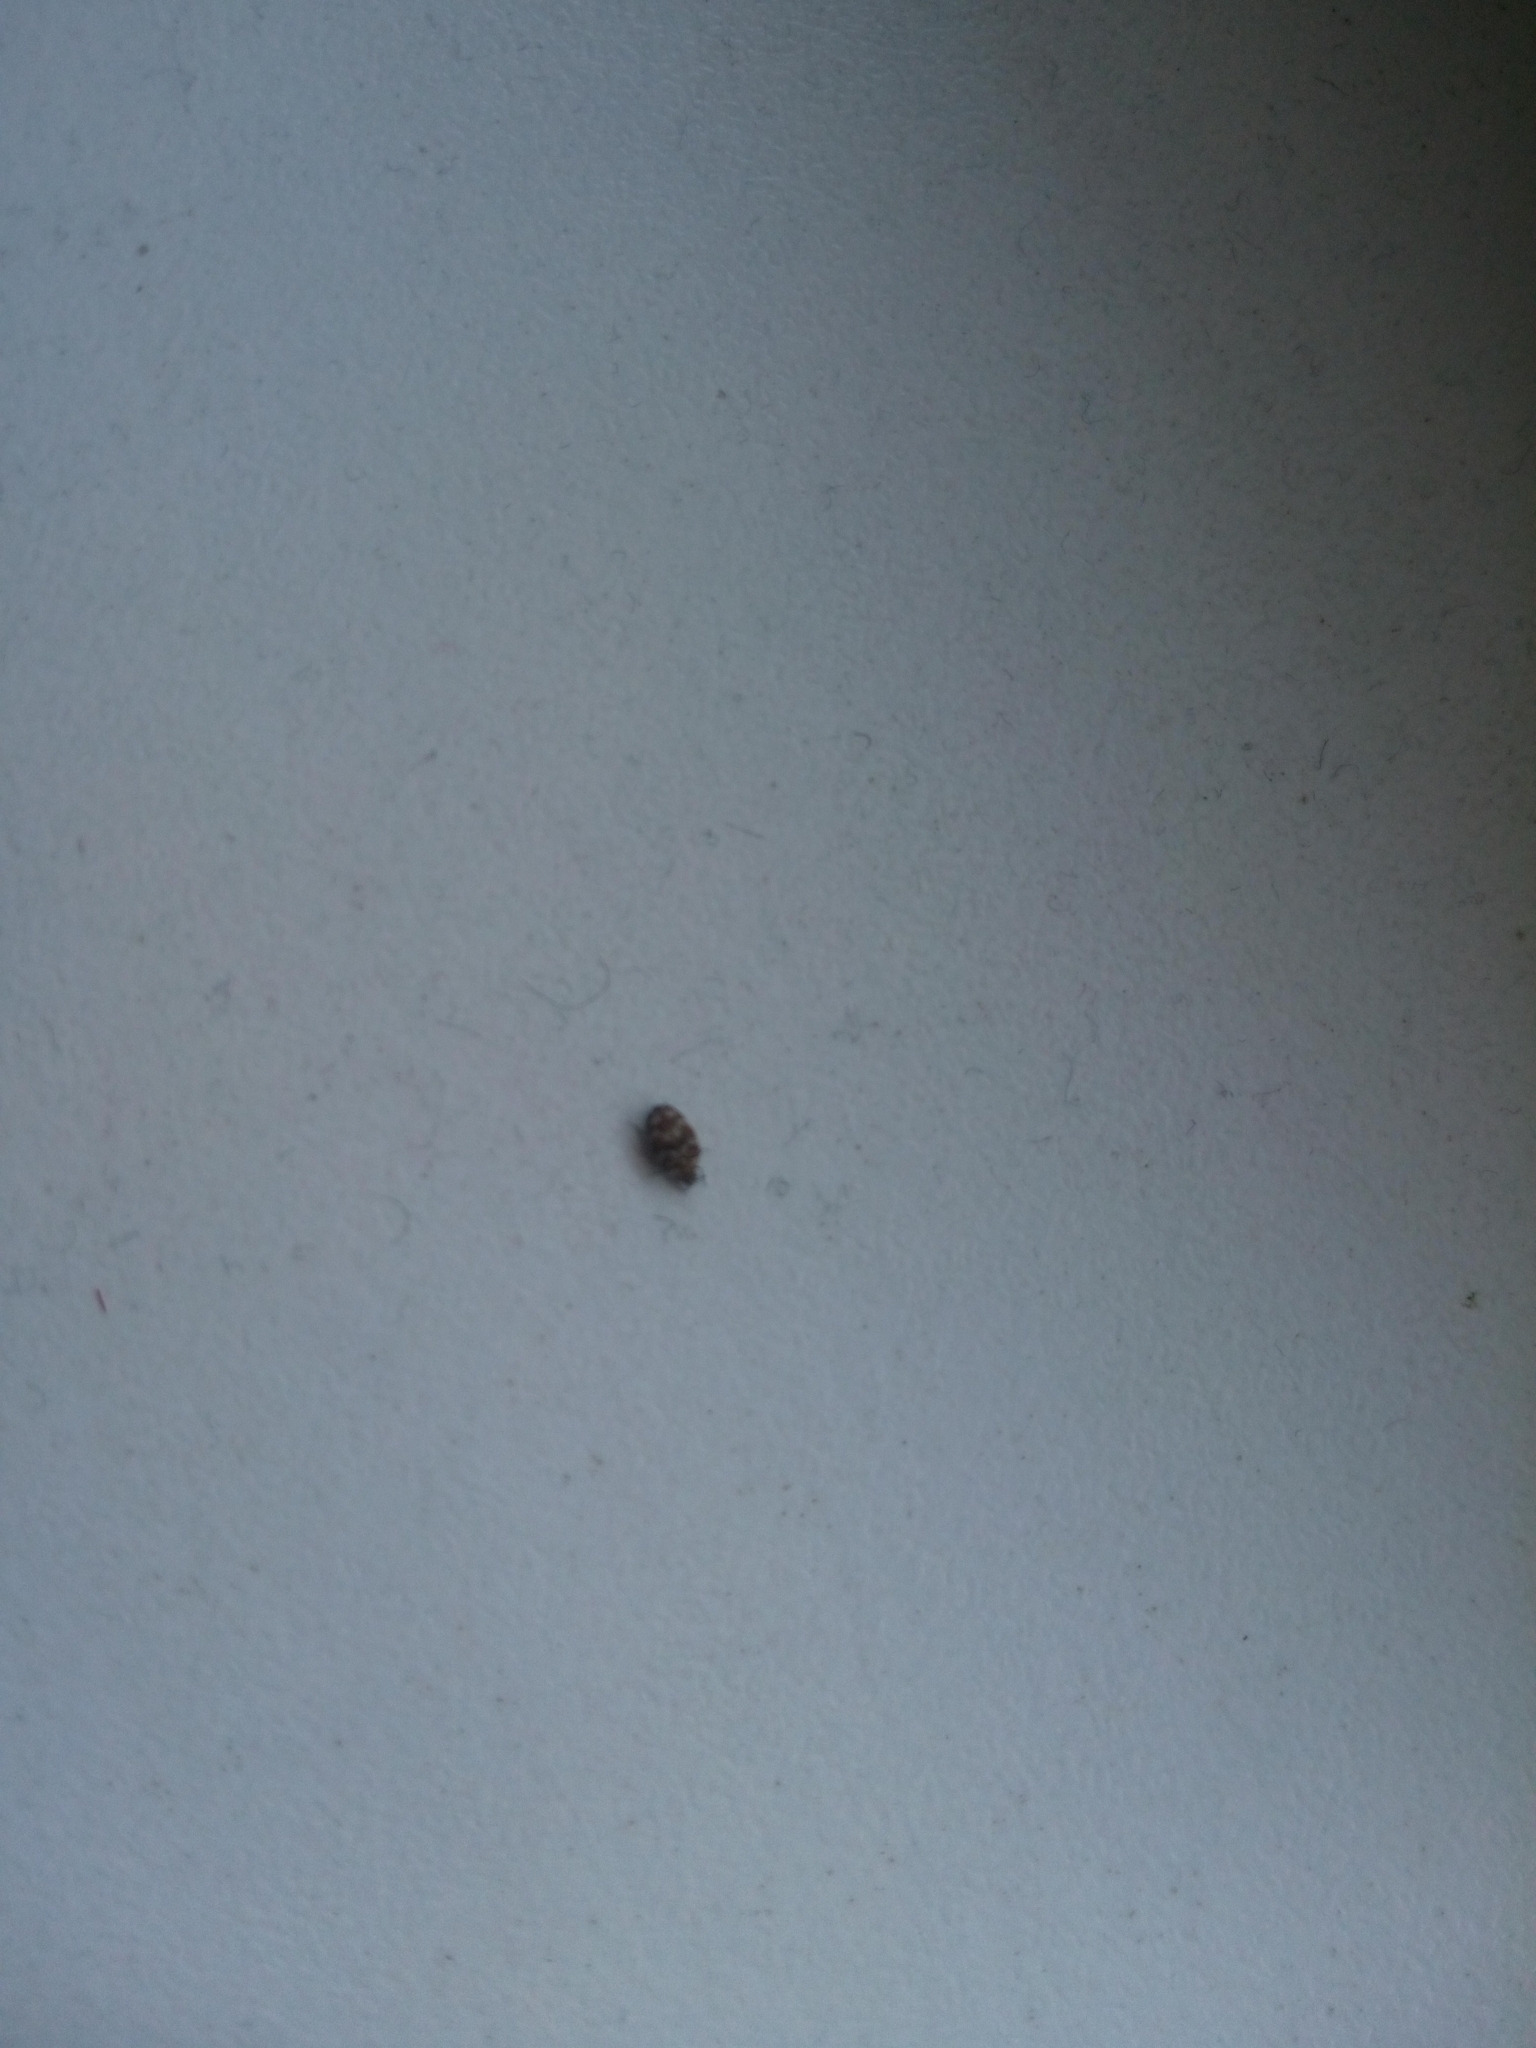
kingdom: Animalia
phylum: Arthropoda
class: Insecta
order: Coleoptera
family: Dermestidae
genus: Anthrenus
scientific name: Anthrenus verbasci
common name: Varied carpet beetle
